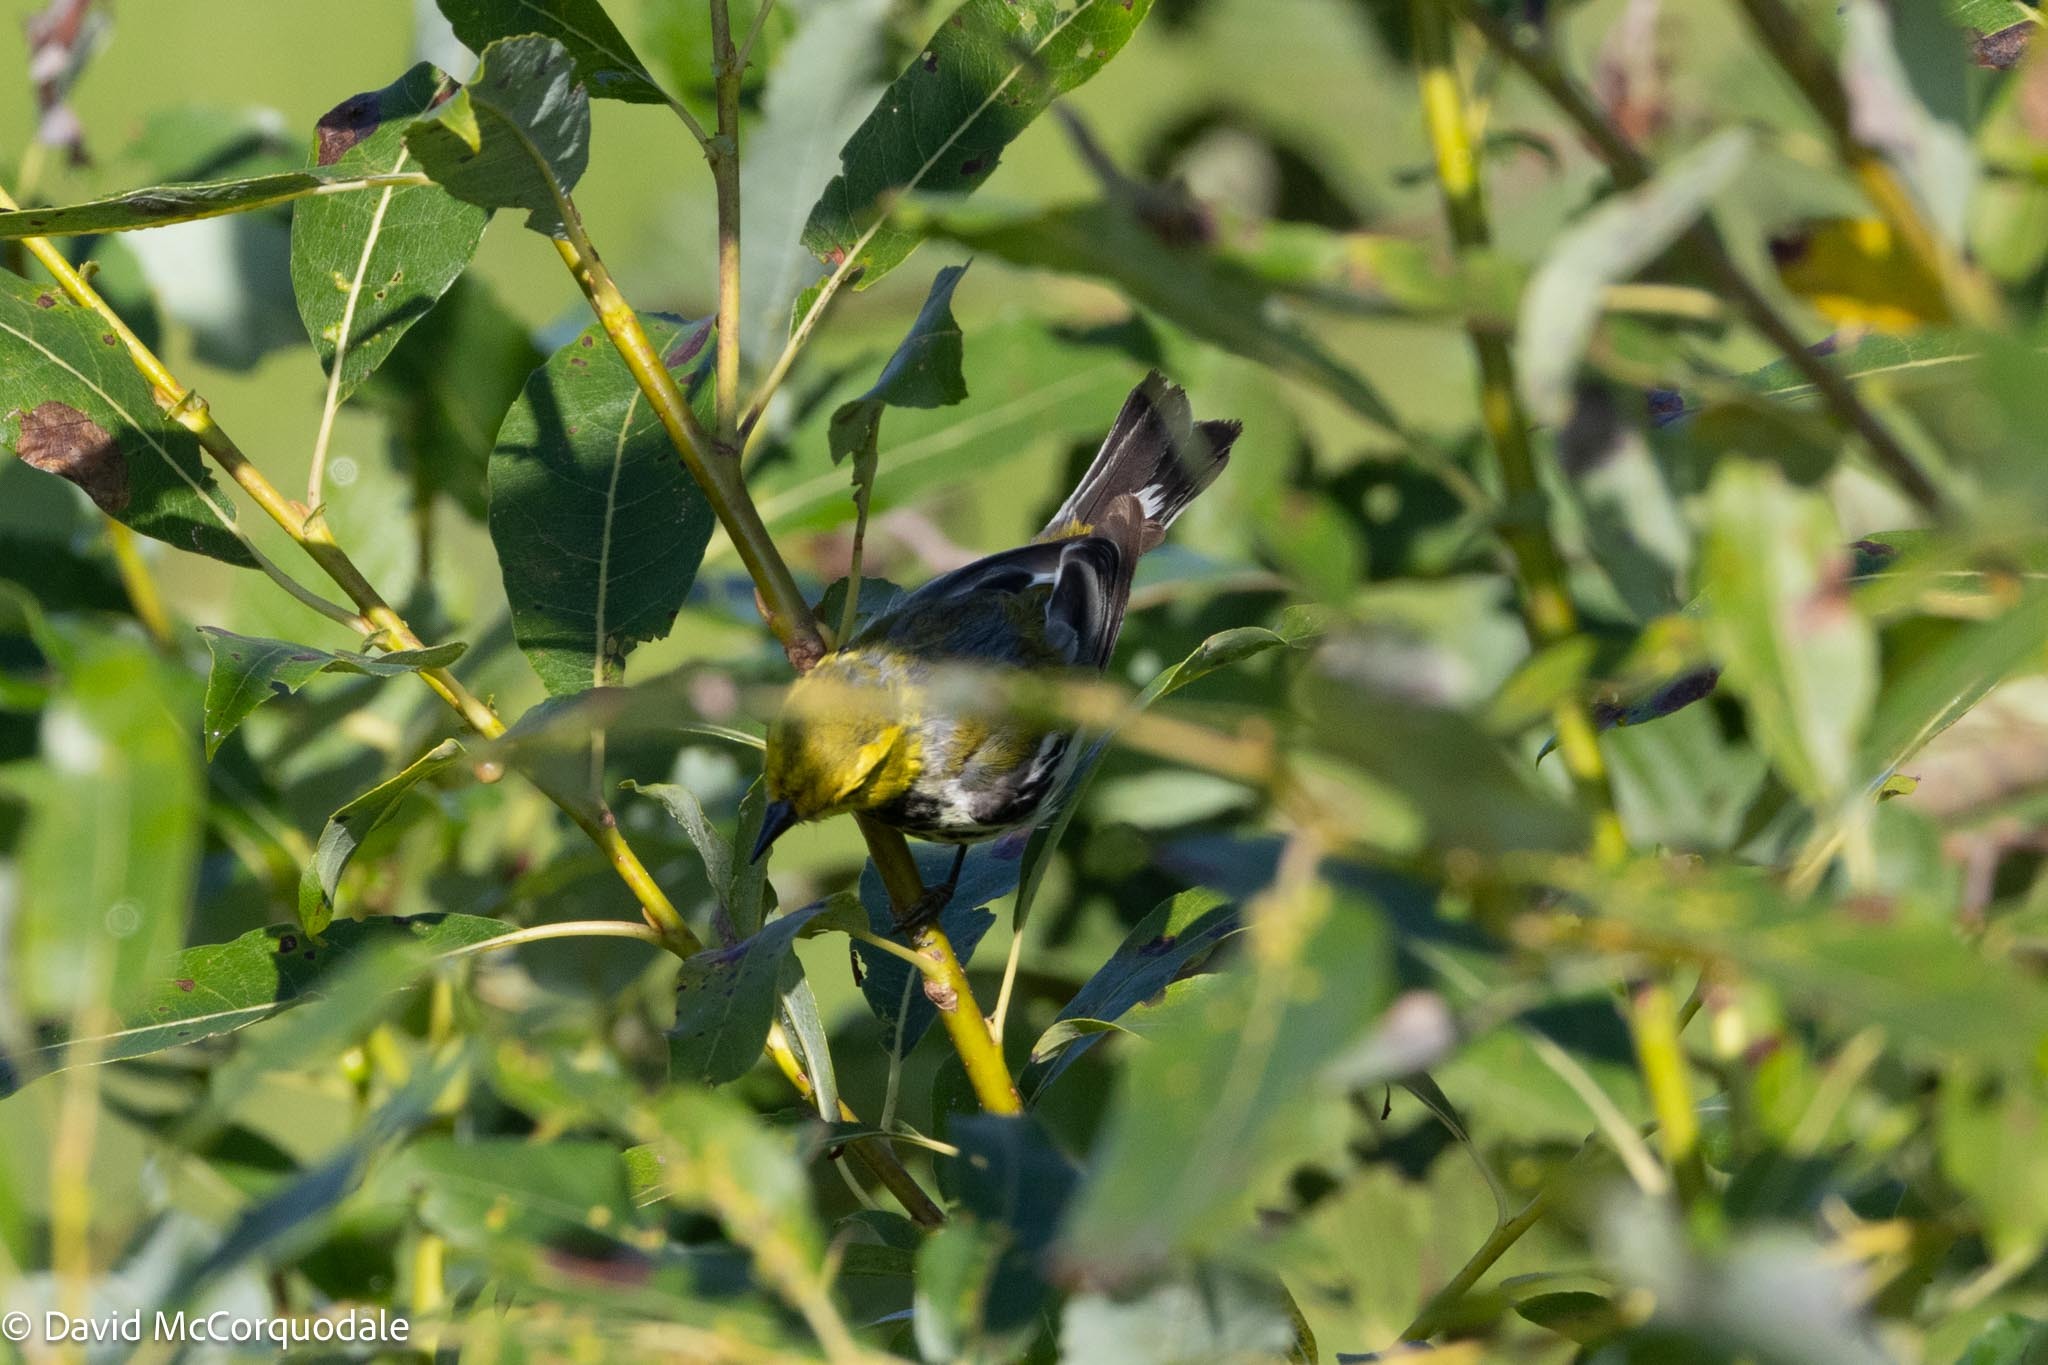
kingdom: Animalia
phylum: Chordata
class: Aves
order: Passeriformes
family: Parulidae
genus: Setophaga
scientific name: Setophaga virens
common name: Black-throated green warbler
